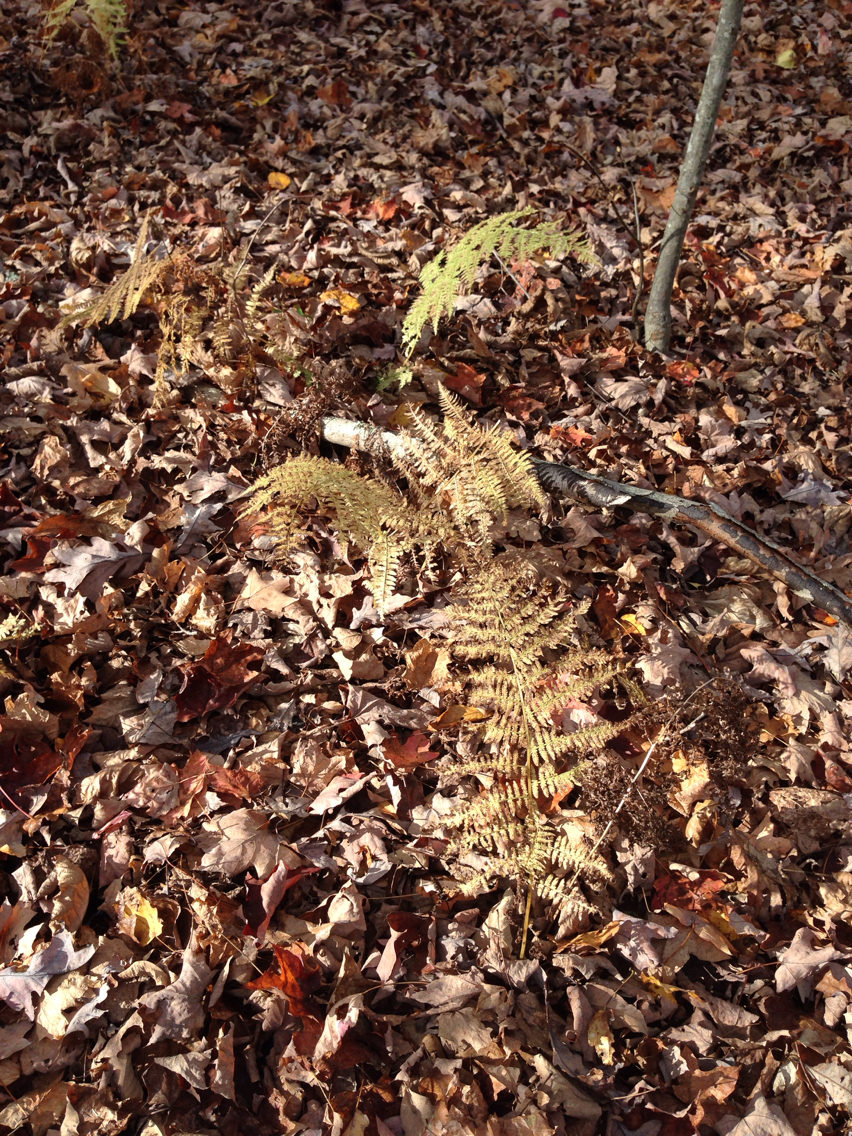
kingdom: Plantae
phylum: Tracheophyta
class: Polypodiopsida
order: Polypodiales
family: Dennstaedtiaceae
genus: Sitobolium
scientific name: Sitobolium punctilobum
